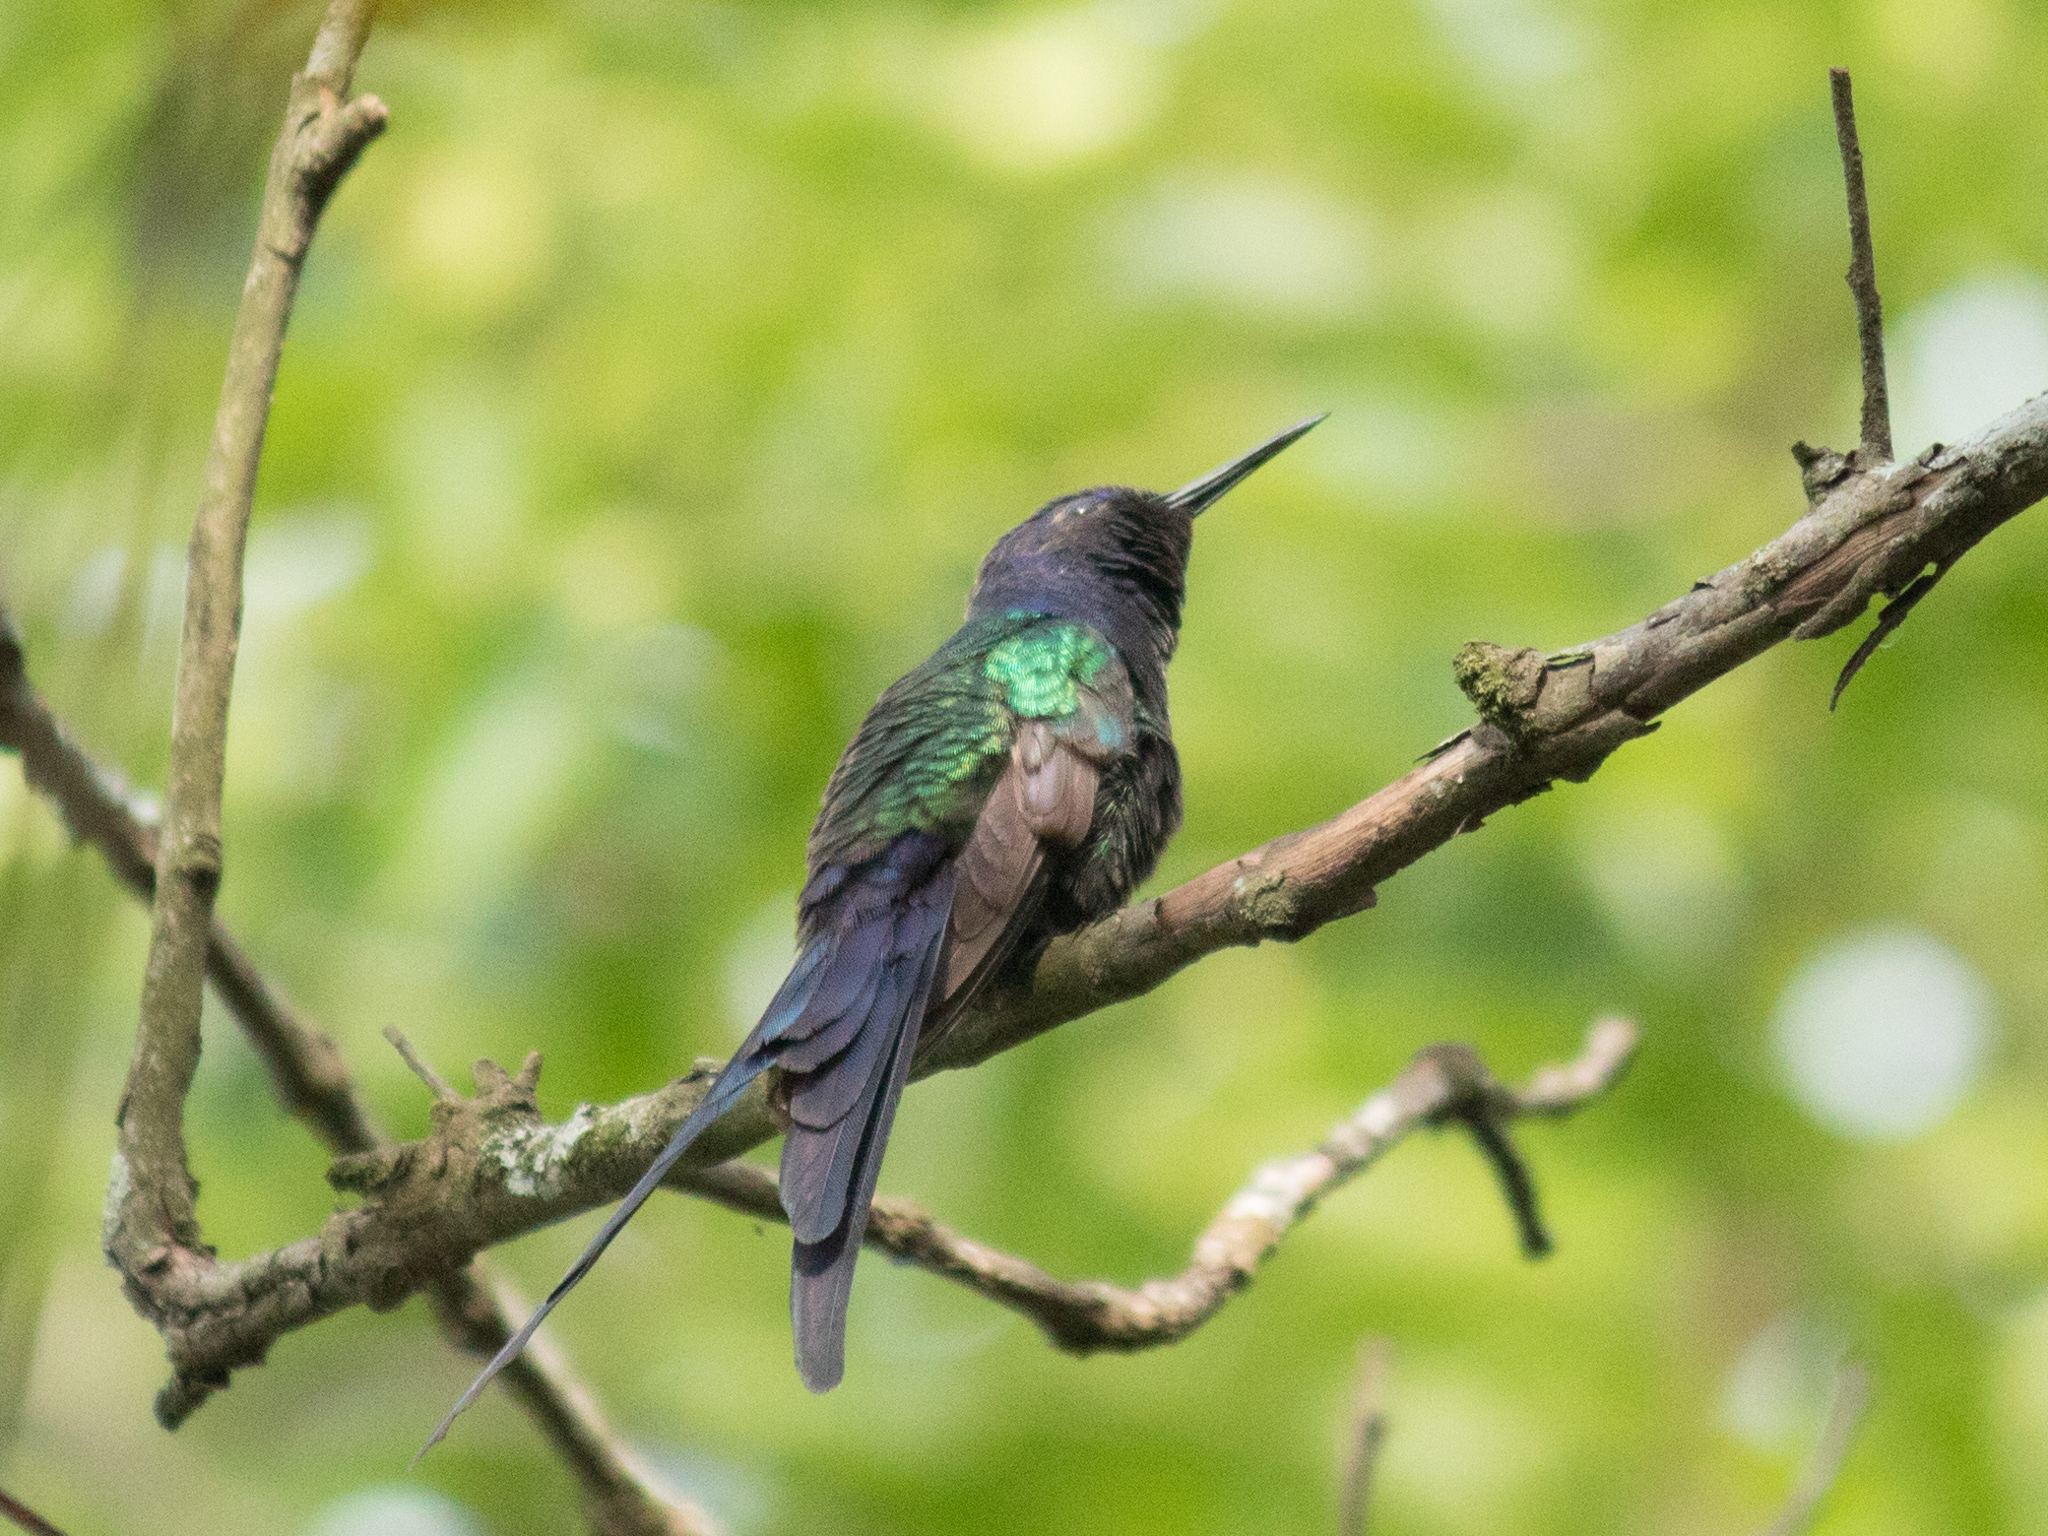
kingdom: Animalia
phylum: Chordata
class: Aves
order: Apodiformes
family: Trochilidae
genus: Eupetomena
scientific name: Eupetomena macroura
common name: Swallow-tailed hummingbird
